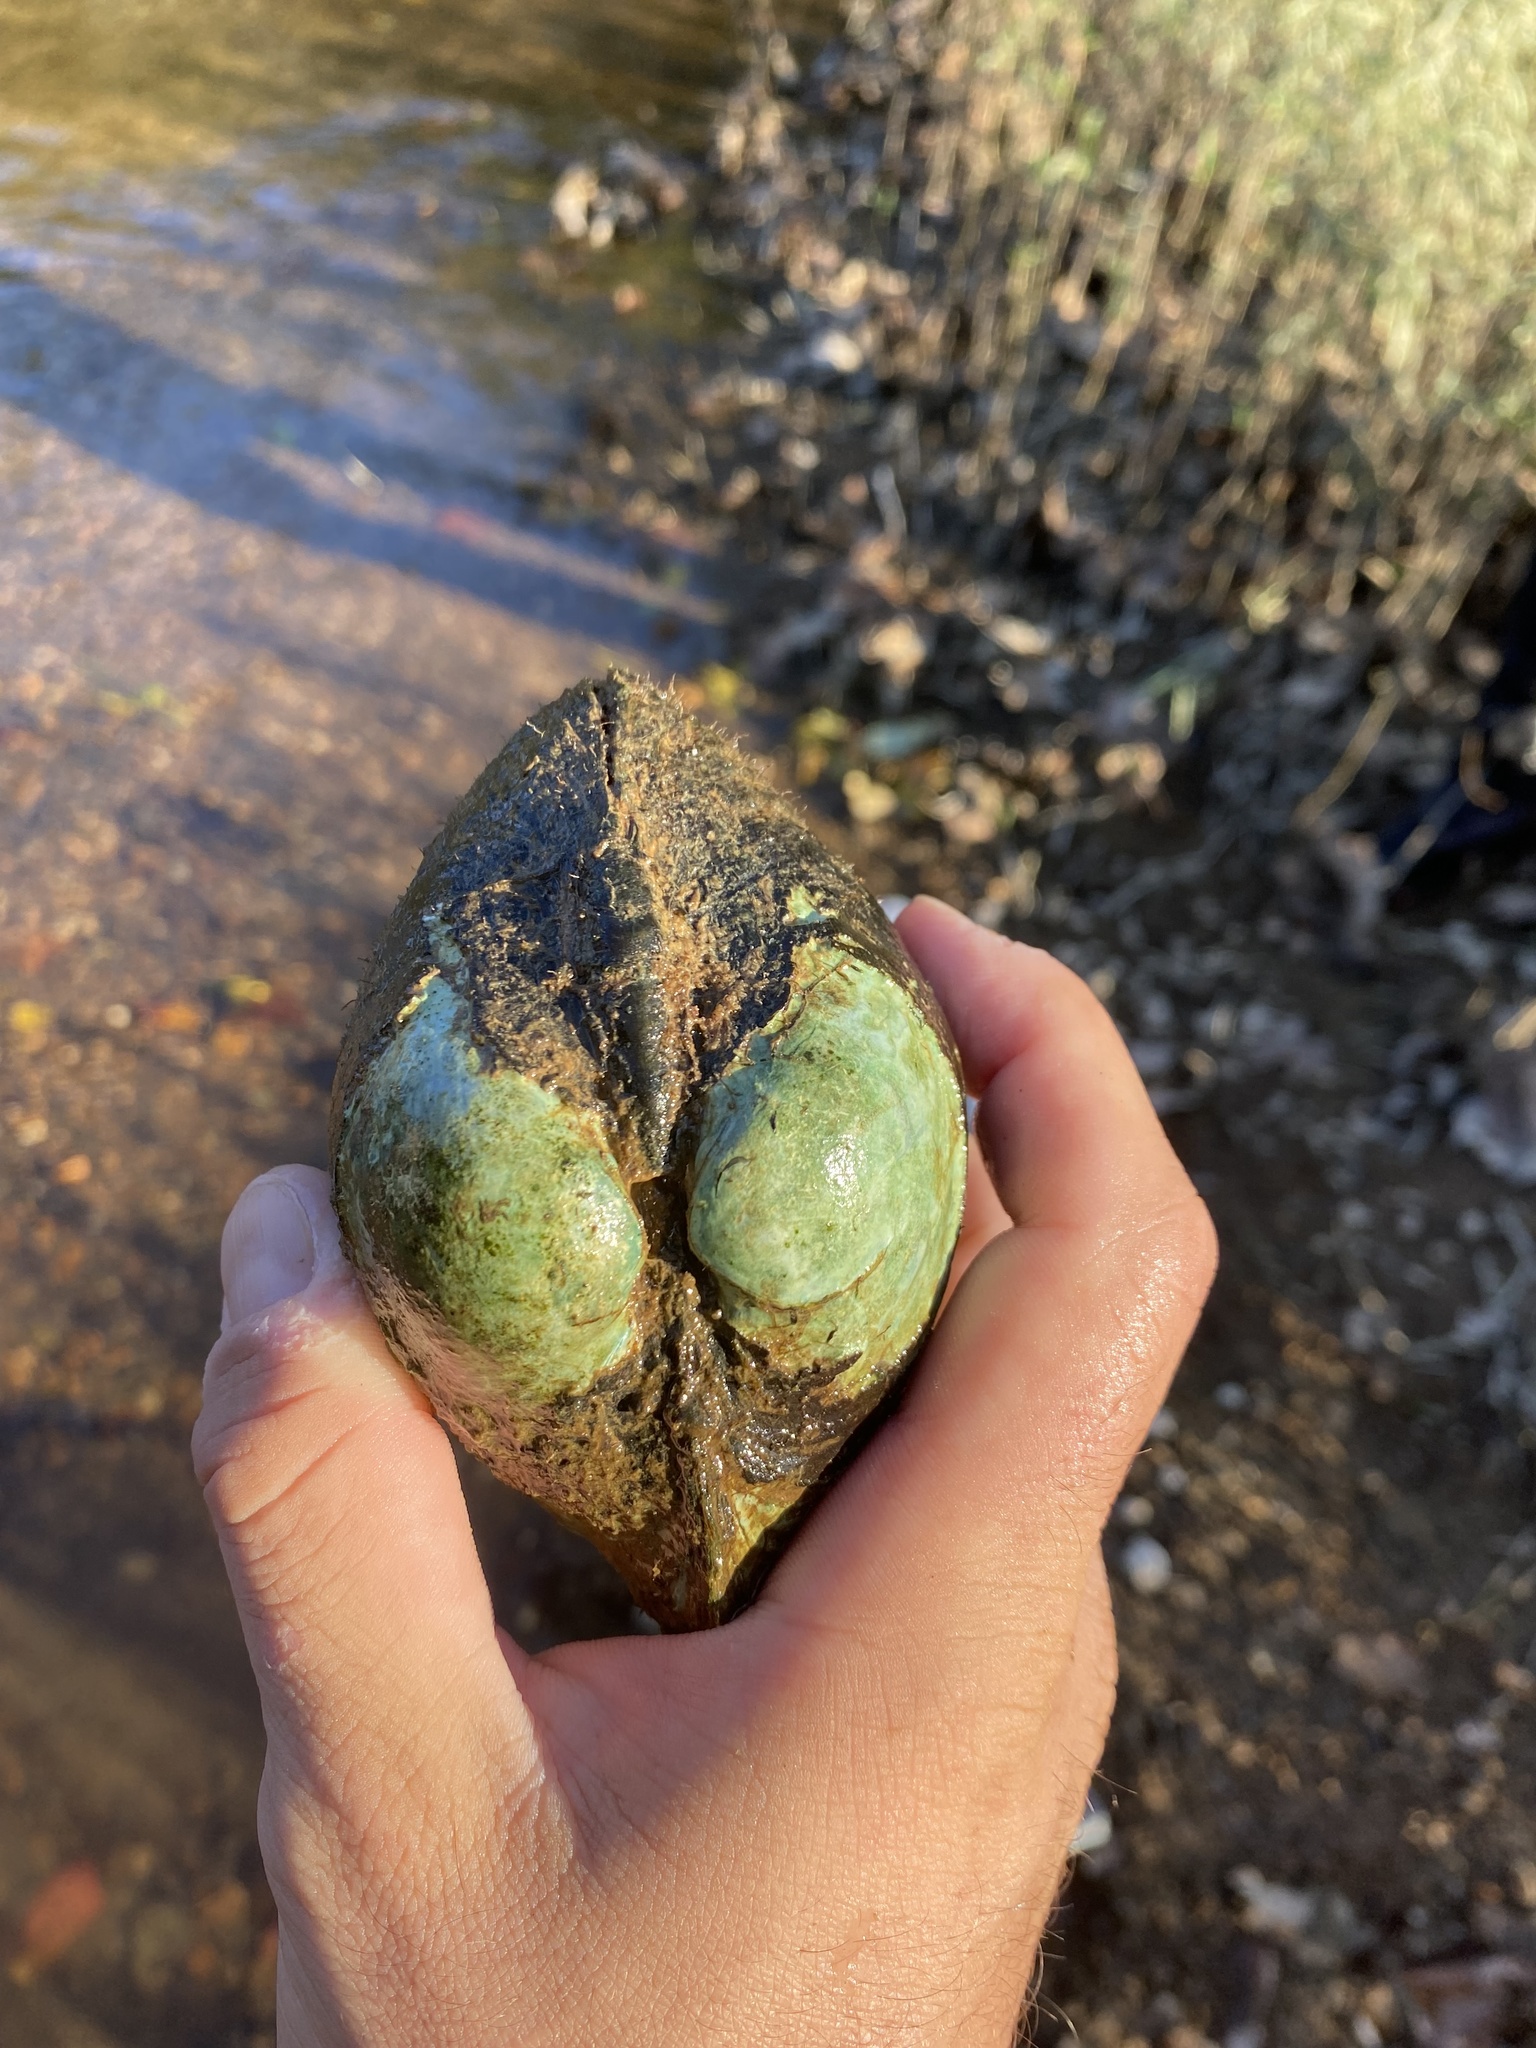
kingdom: Animalia
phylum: Mollusca
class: Bivalvia
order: Unionida
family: Unionidae
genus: Lampsilis
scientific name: Lampsilis ornata
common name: Southern pocketbook
